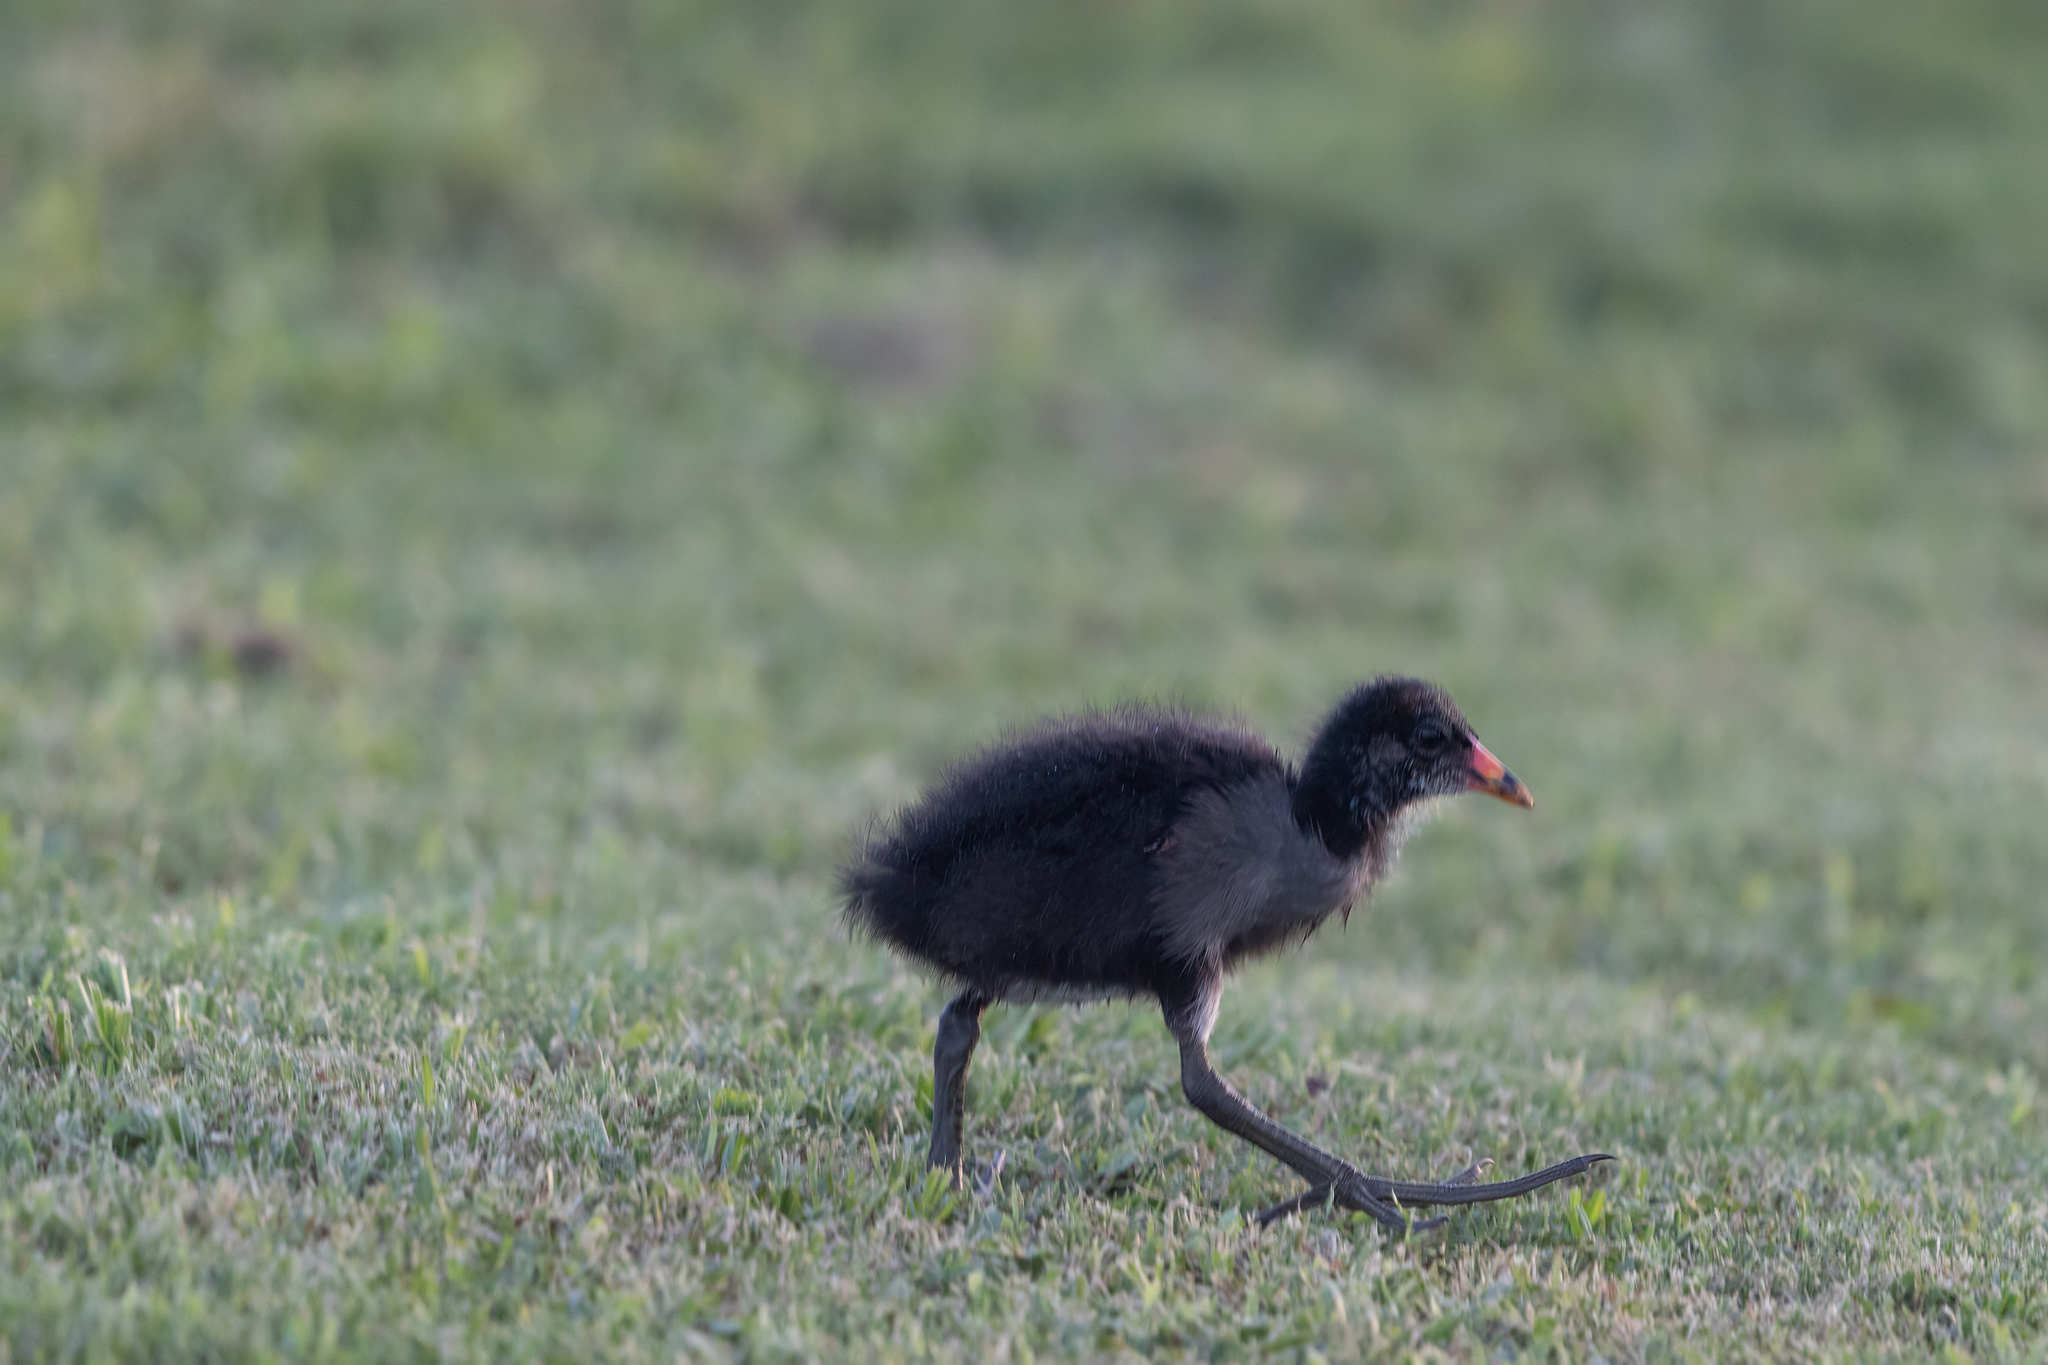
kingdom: Animalia
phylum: Chordata
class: Aves
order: Gruiformes
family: Rallidae
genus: Gallinula
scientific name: Gallinula chloropus
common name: Common moorhen
